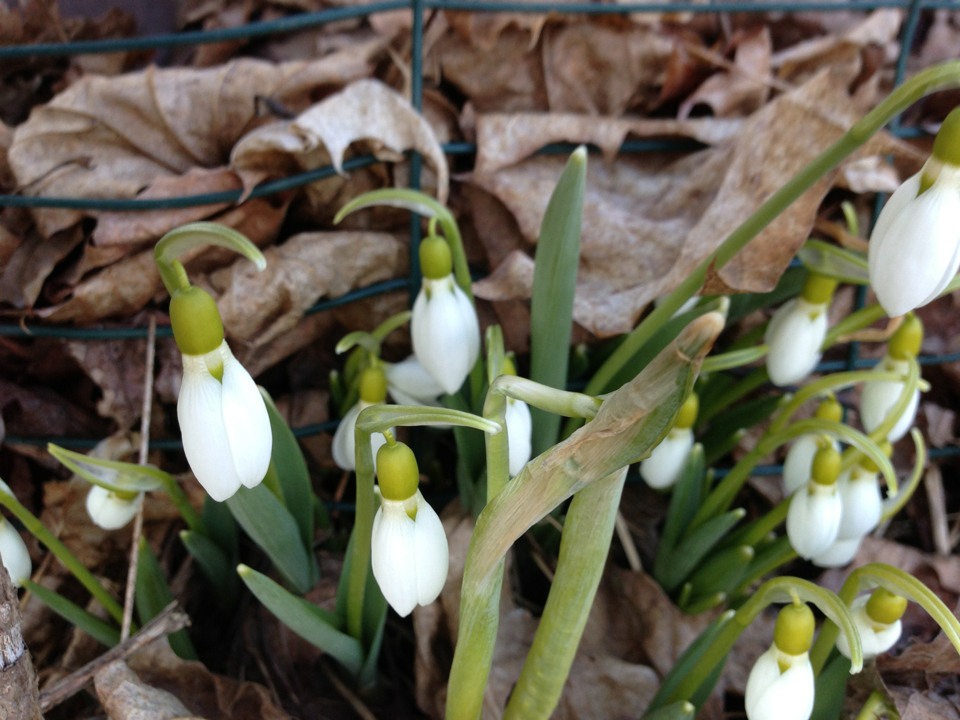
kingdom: Plantae
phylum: Tracheophyta
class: Liliopsida
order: Asparagales
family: Amaryllidaceae
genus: Galanthus
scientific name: Galanthus elwesii
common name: Greater snowdrop
